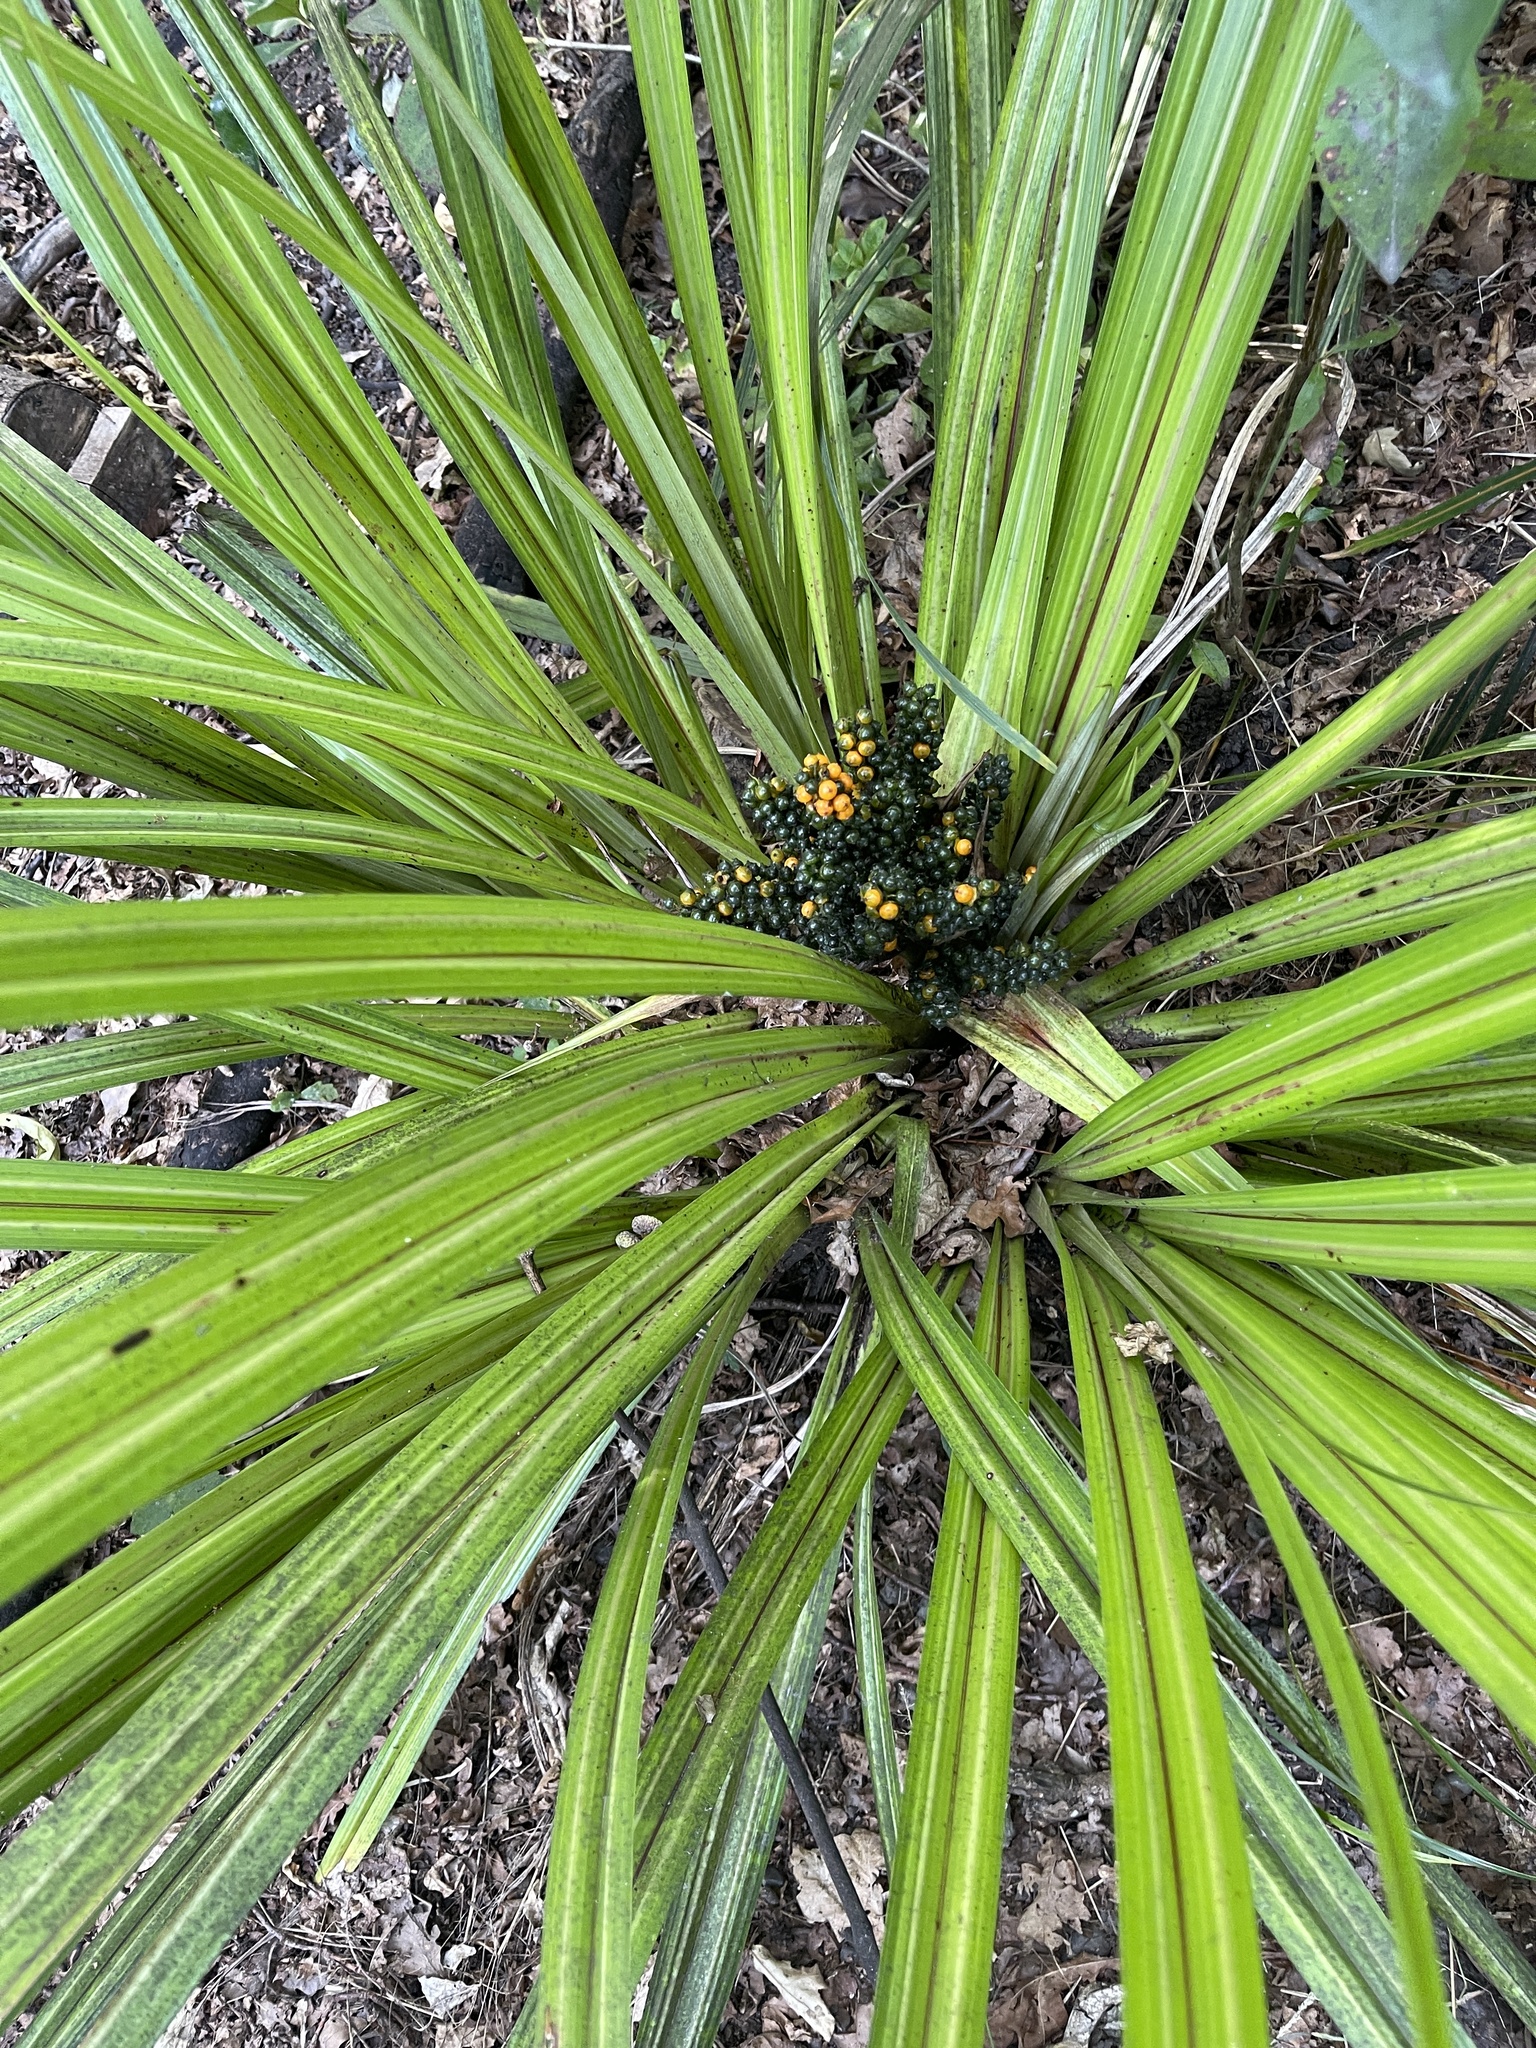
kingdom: Plantae
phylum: Tracheophyta
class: Liliopsida
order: Asparagales
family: Asteliaceae
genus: Astelia
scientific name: Astelia fragrans
